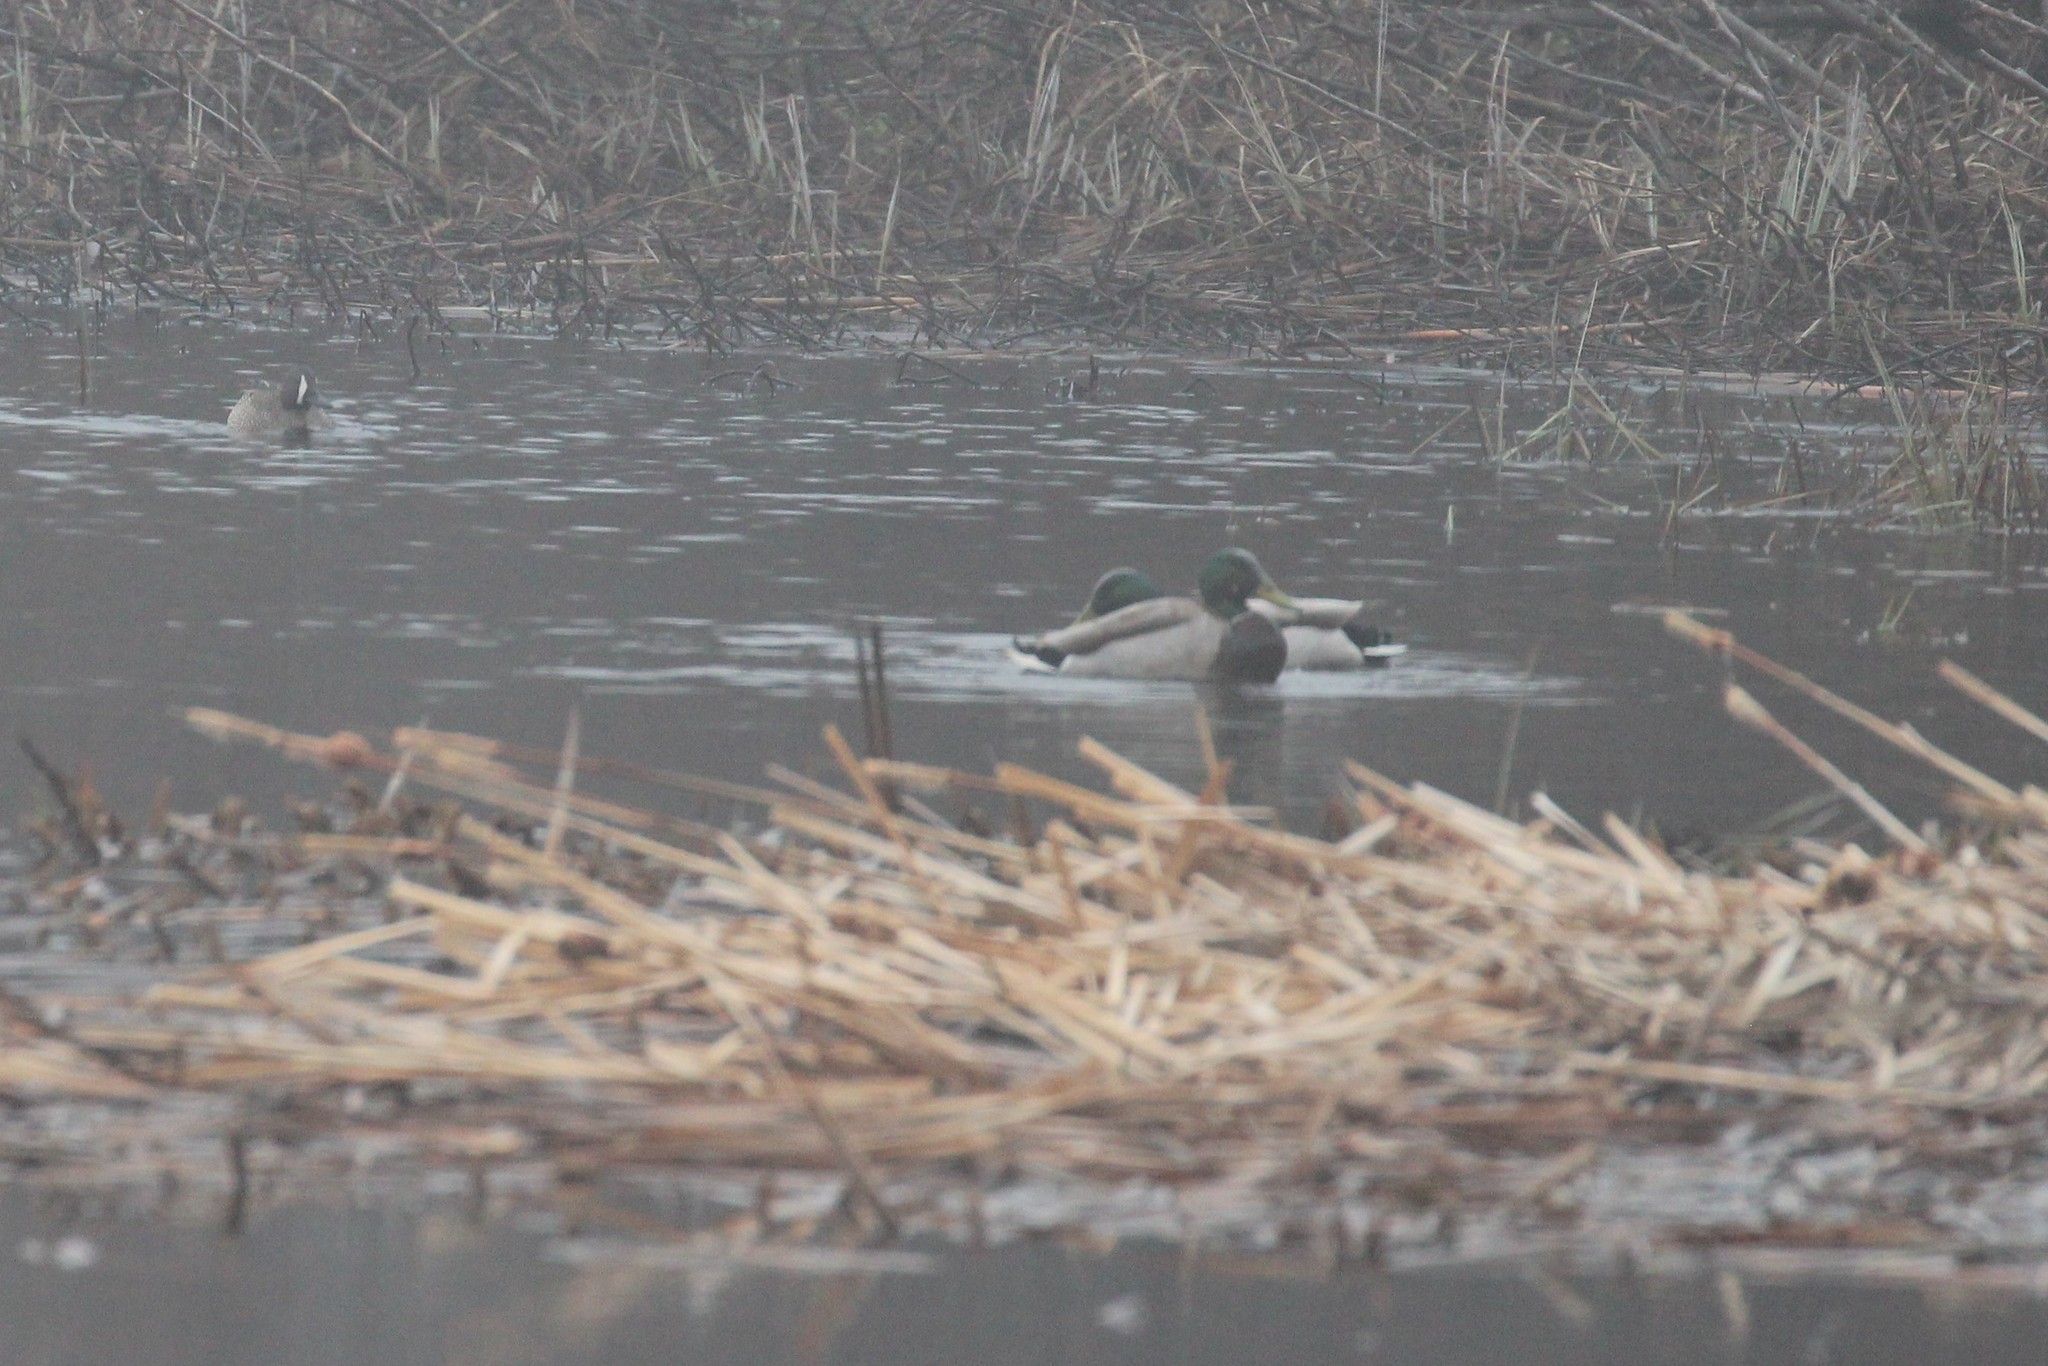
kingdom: Animalia
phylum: Chordata
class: Aves
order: Anseriformes
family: Anatidae
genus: Spatula
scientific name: Spatula discors
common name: Blue-winged teal
